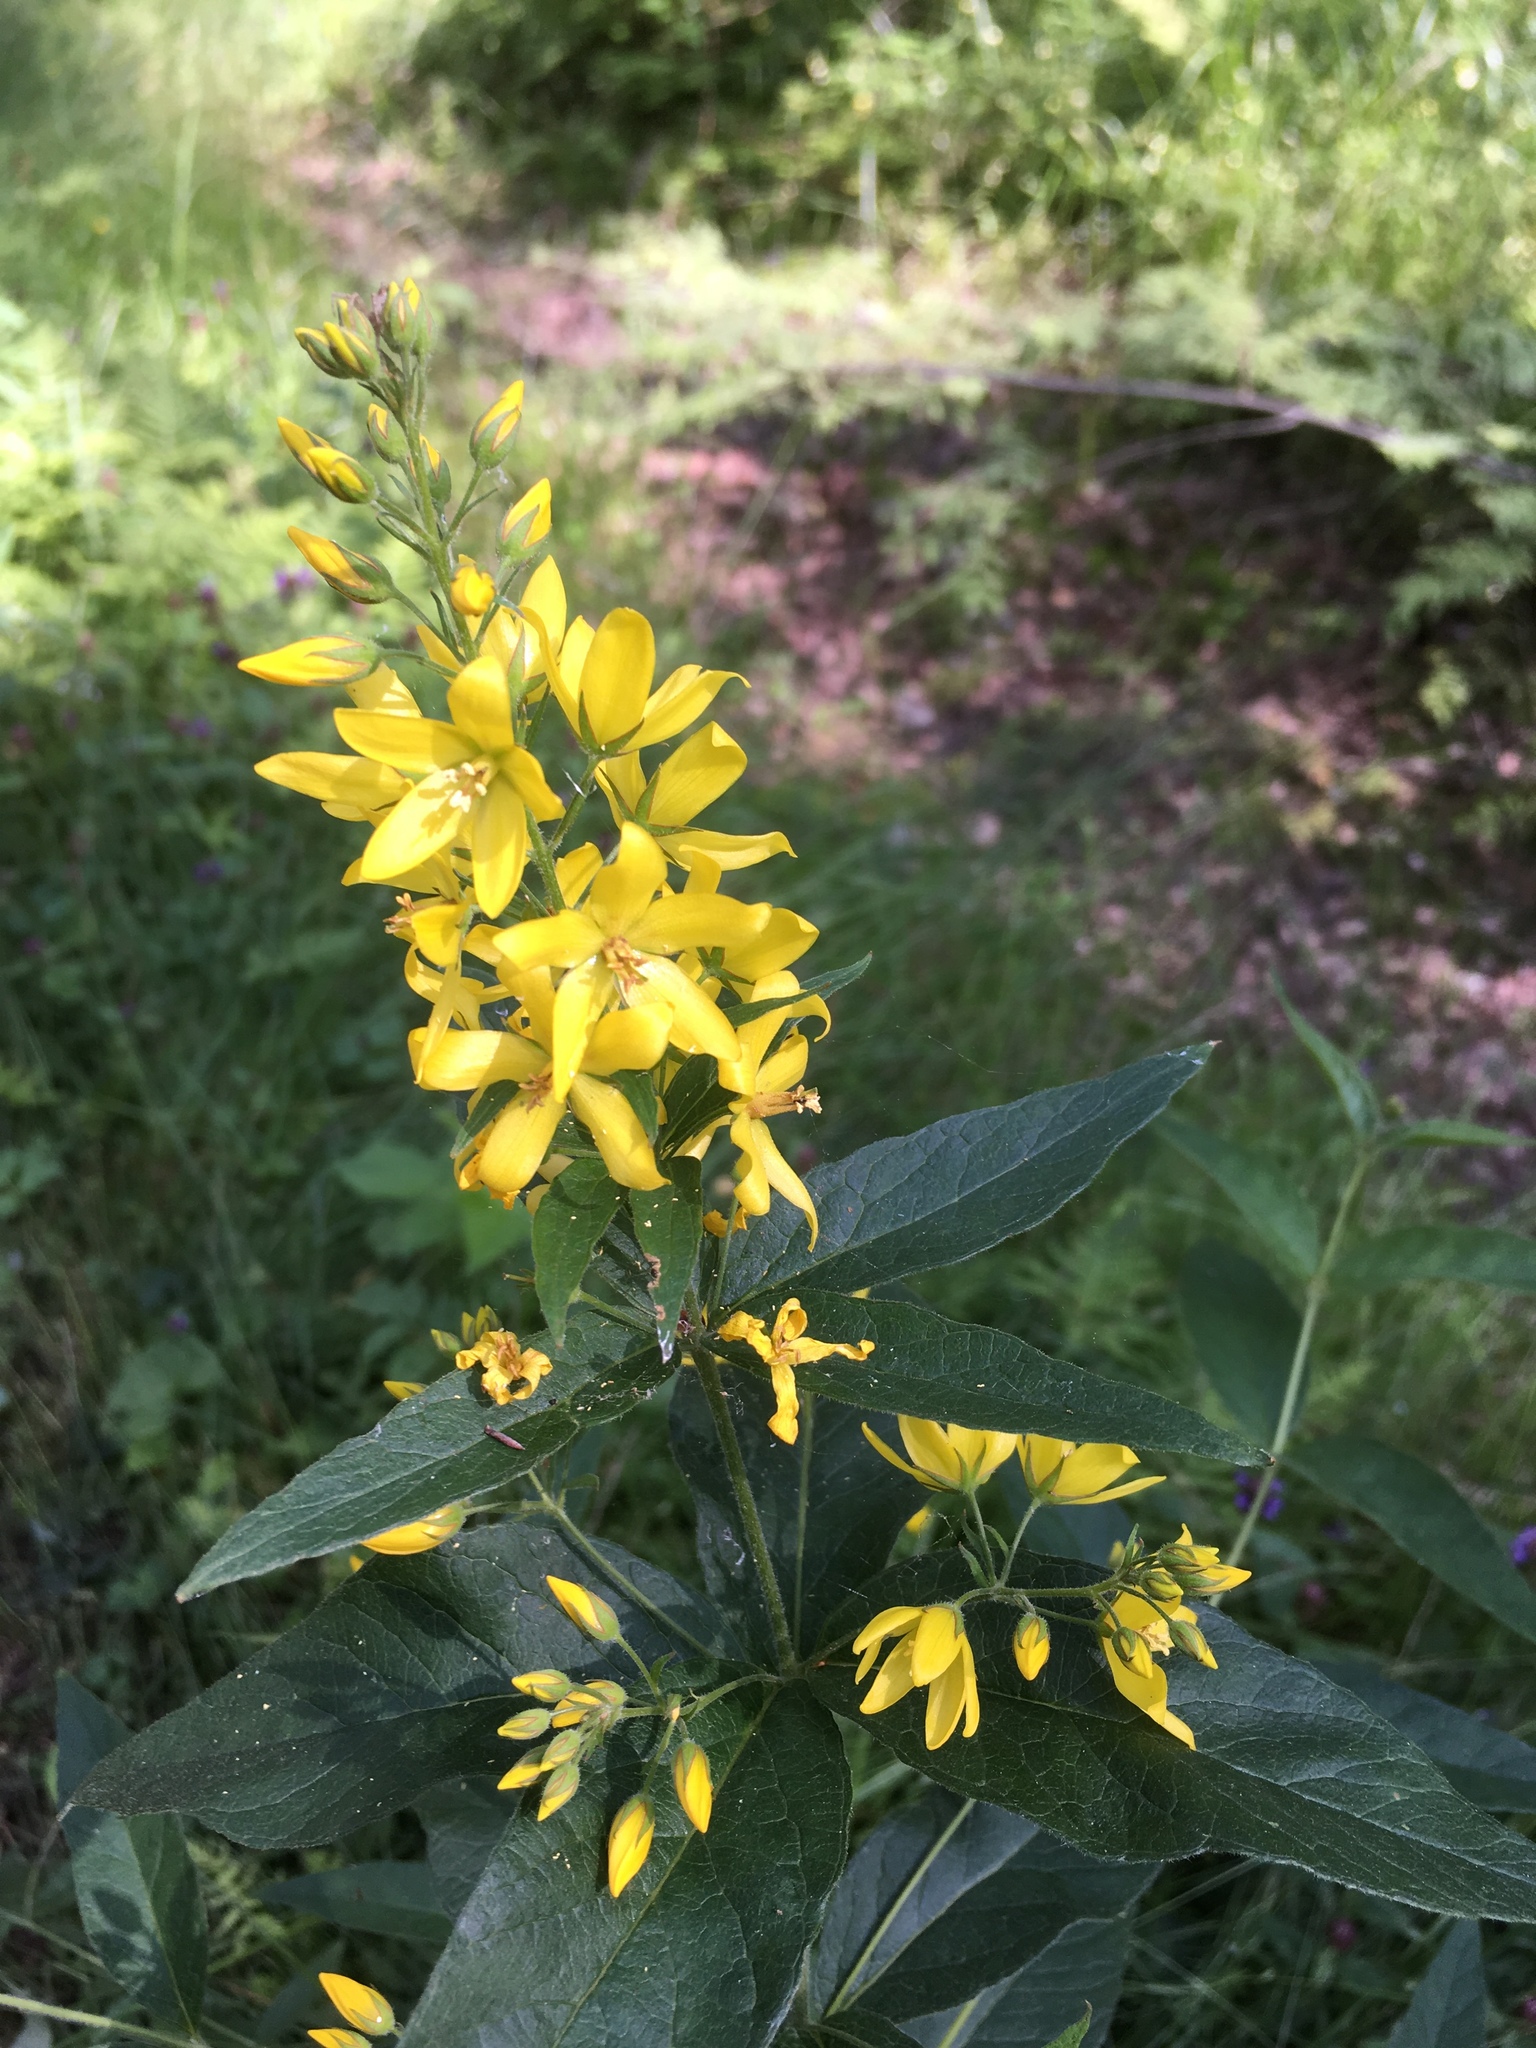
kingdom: Plantae
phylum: Tracheophyta
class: Magnoliopsida
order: Ericales
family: Primulaceae
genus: Lysimachia
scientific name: Lysimachia vulgaris
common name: Yellow loosestrife
